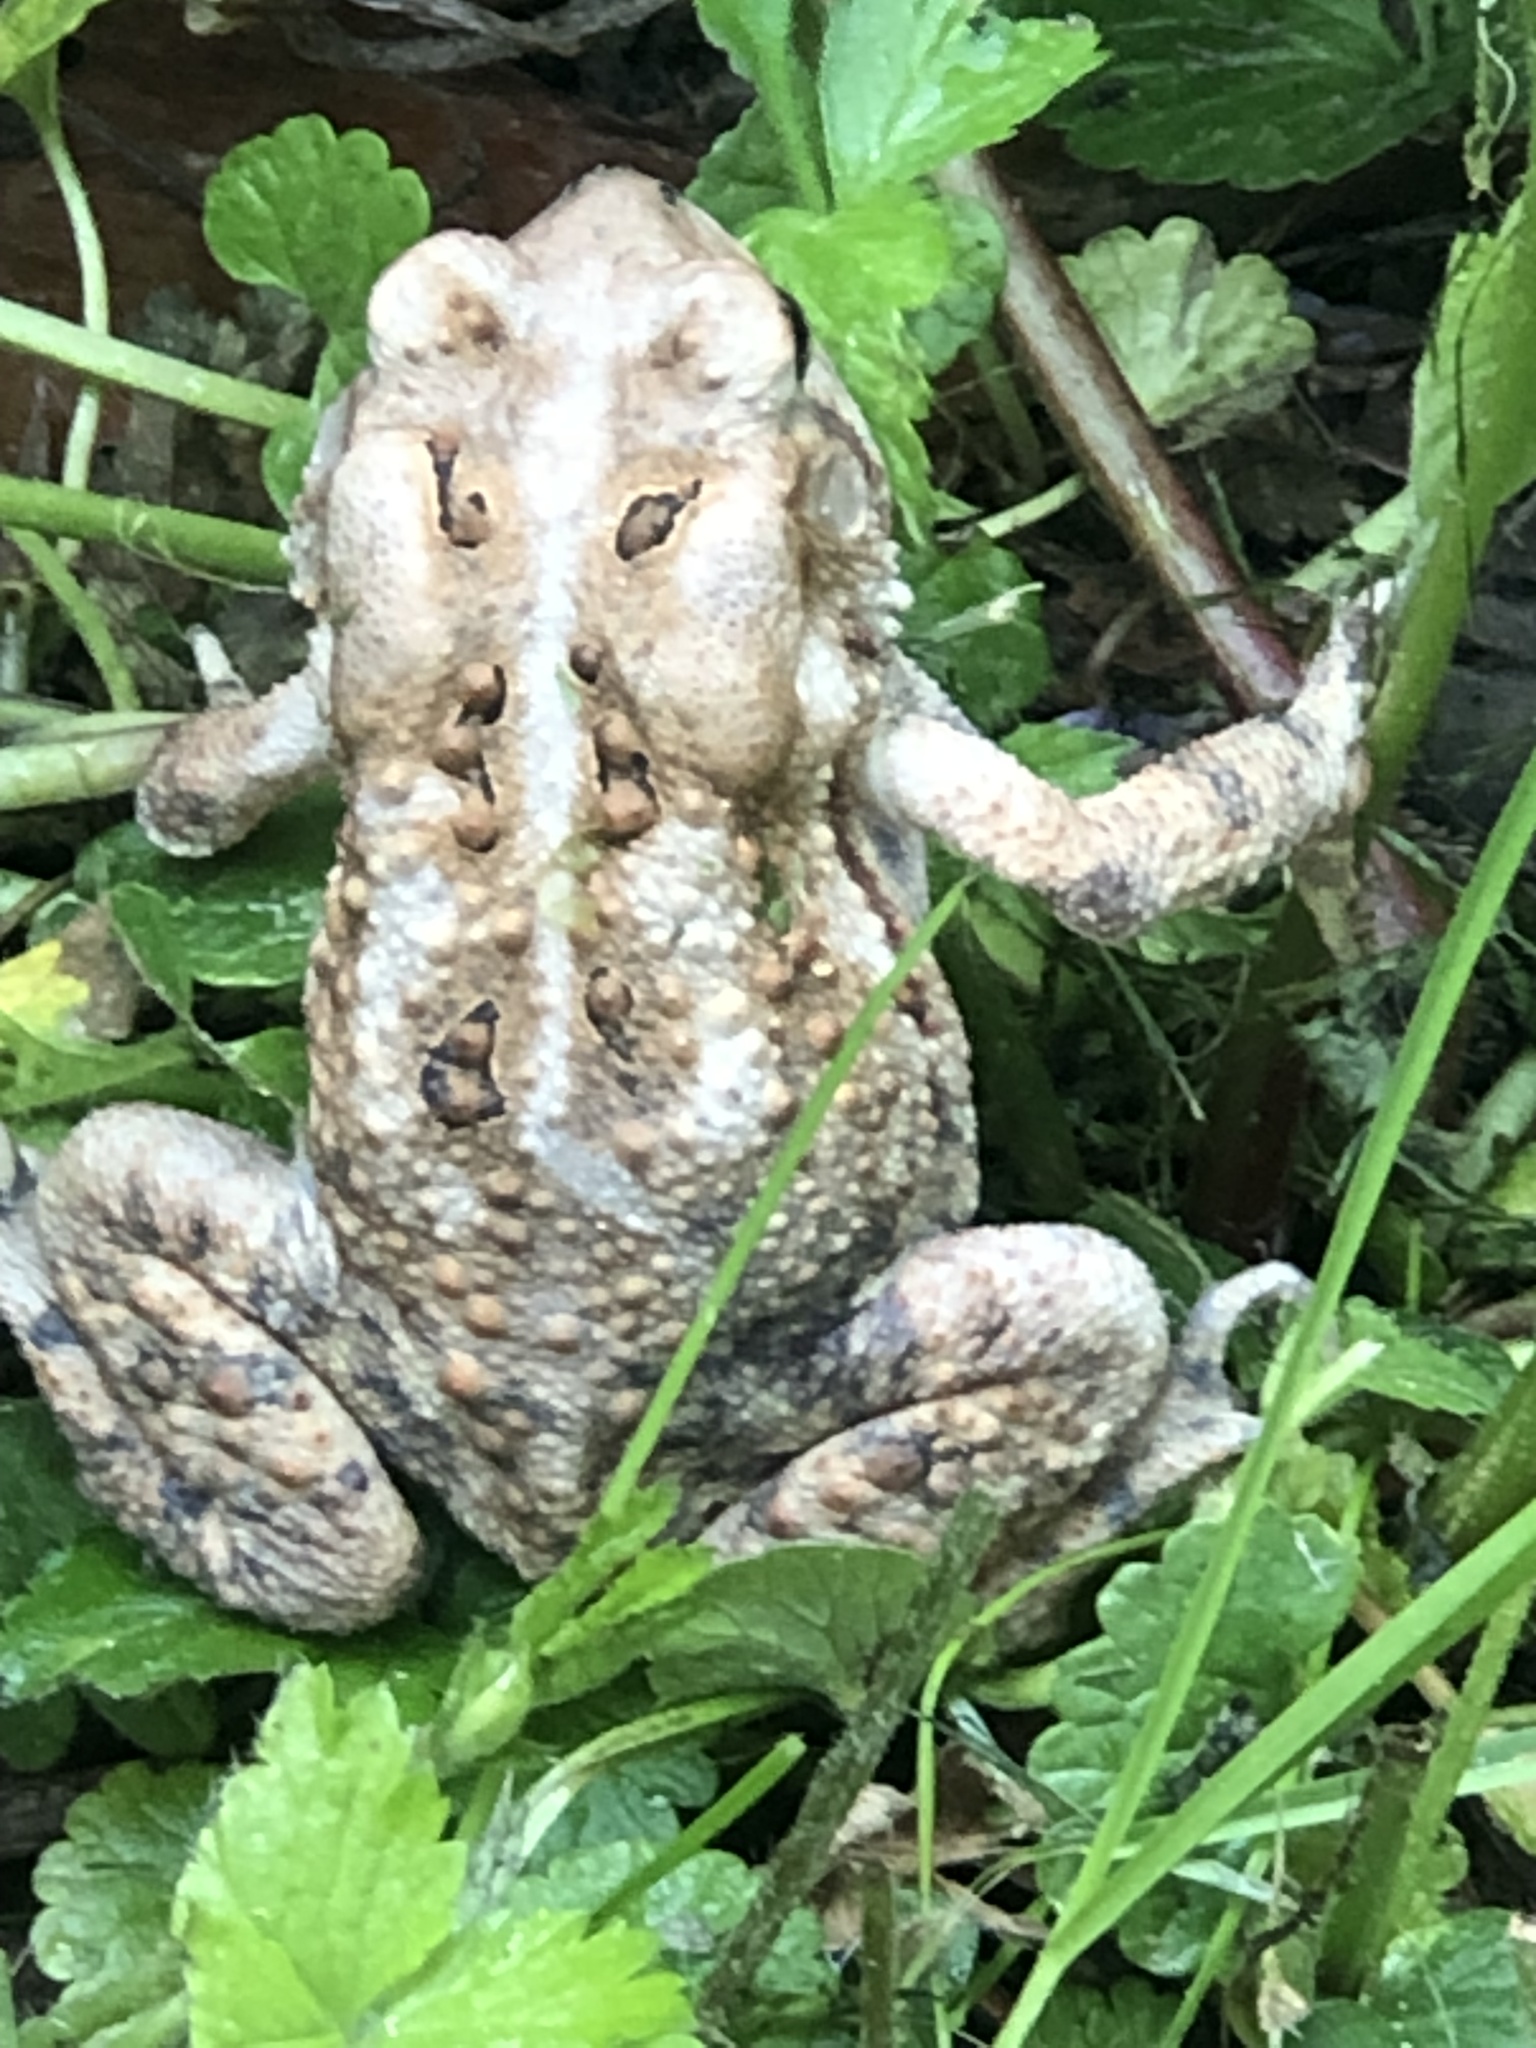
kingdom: Animalia
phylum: Chordata
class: Amphibia
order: Anura
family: Bufonidae
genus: Anaxyrus
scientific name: Anaxyrus americanus
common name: American toad
